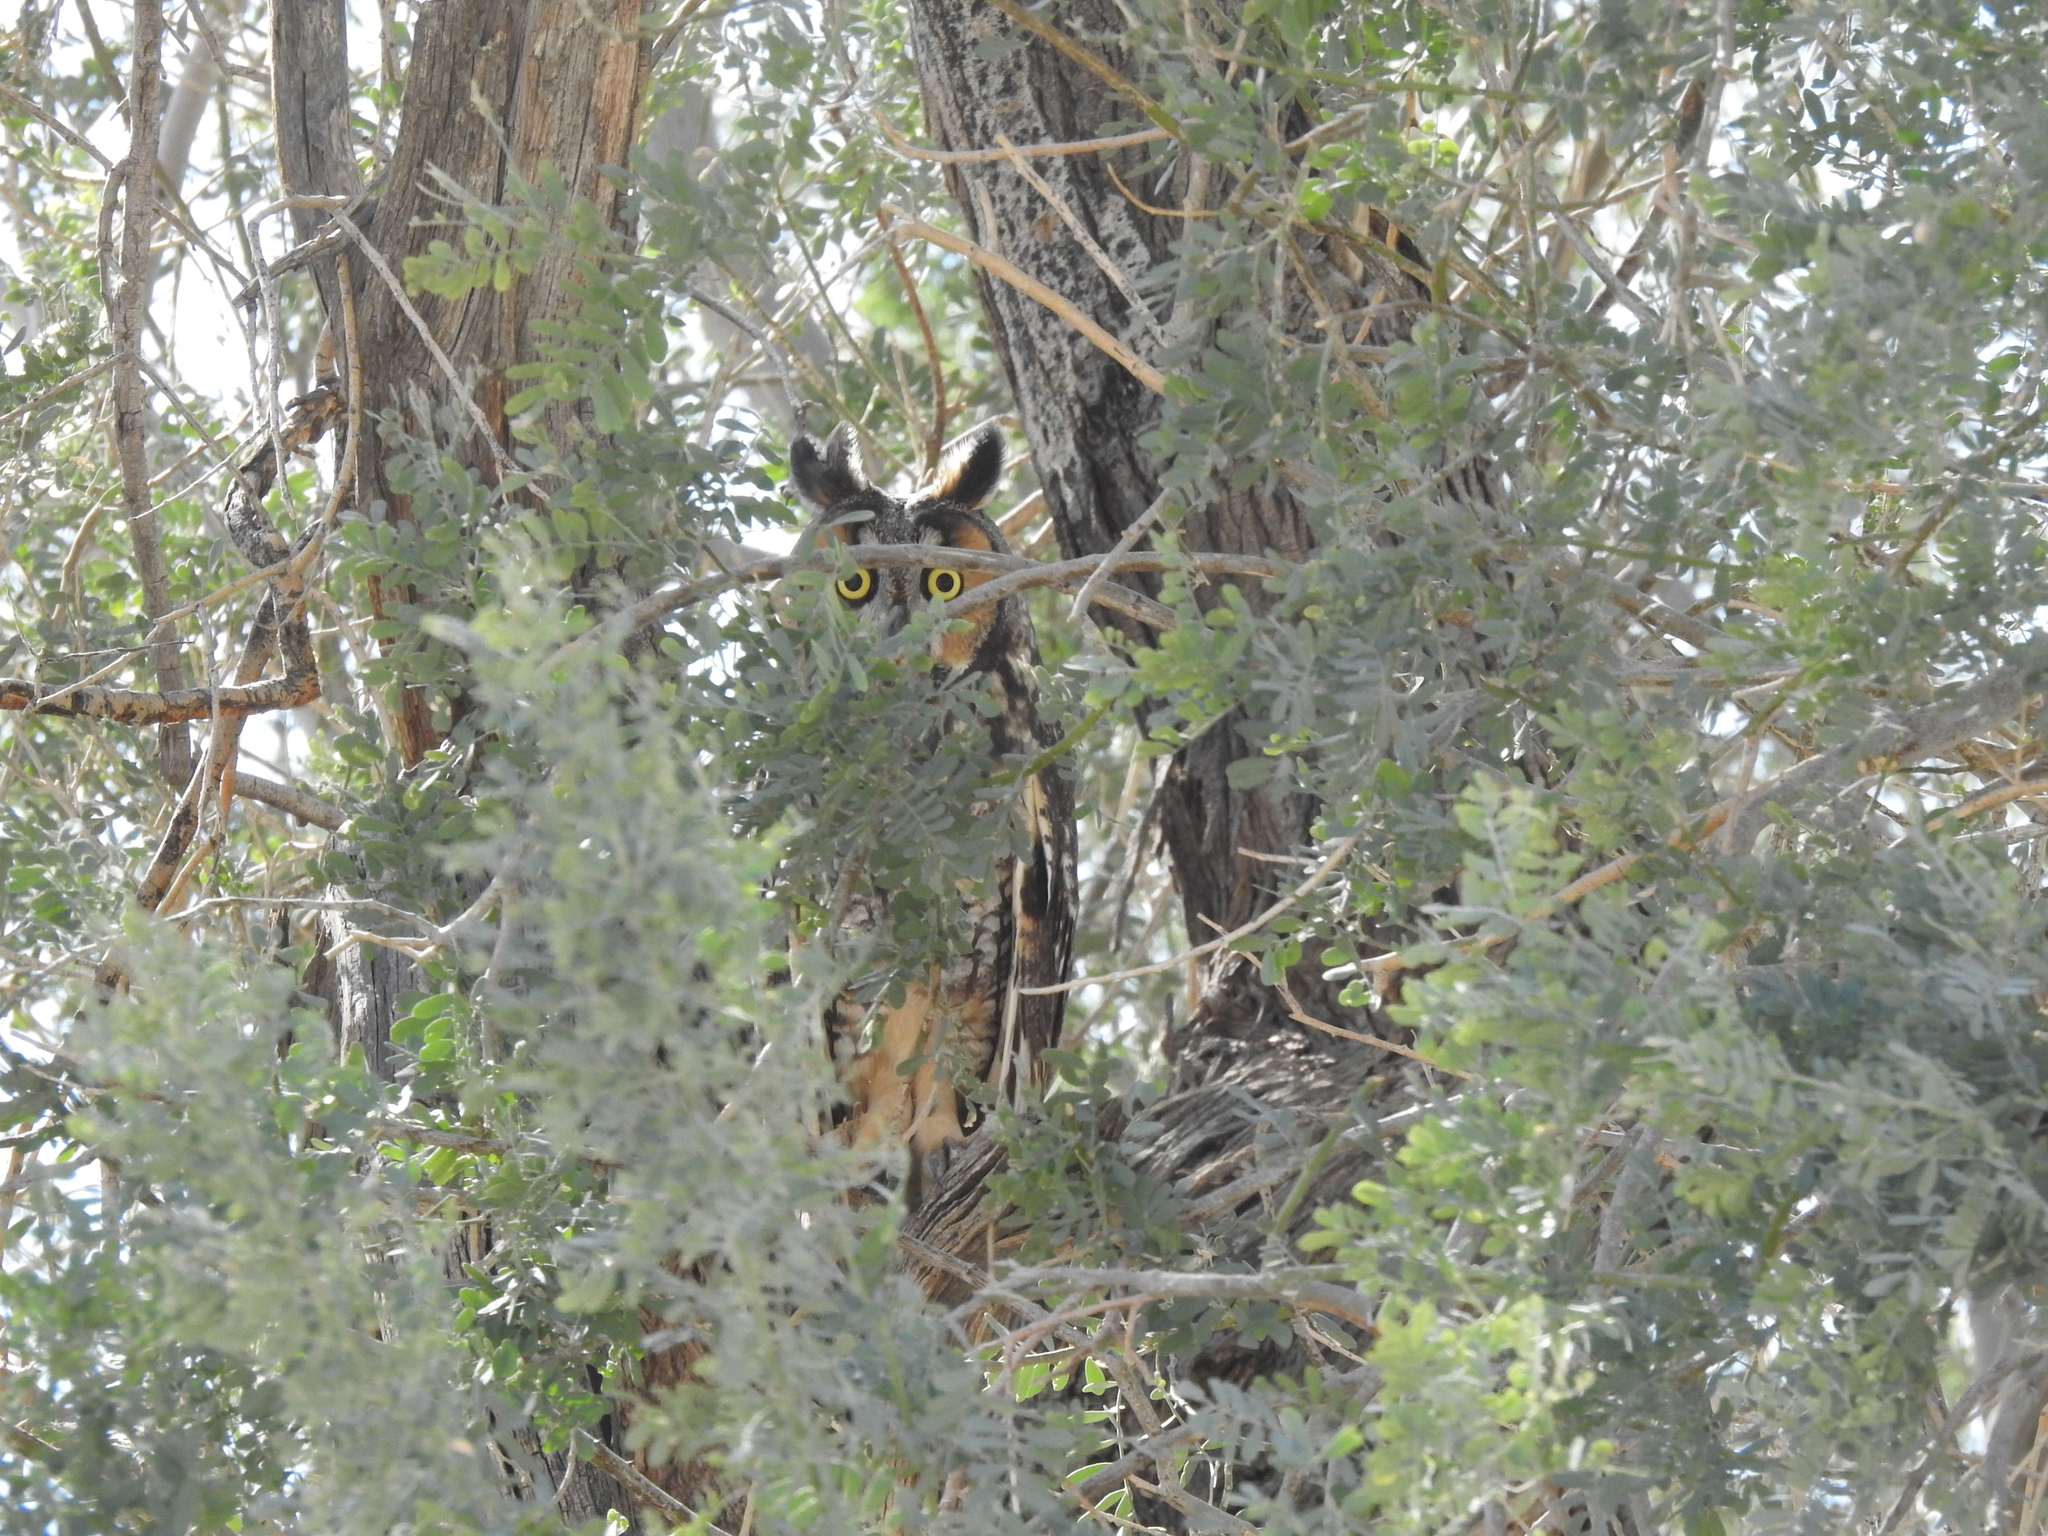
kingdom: Animalia
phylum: Chordata
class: Aves
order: Strigiformes
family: Strigidae
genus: Asio
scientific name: Asio otus
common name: Long-eared owl
